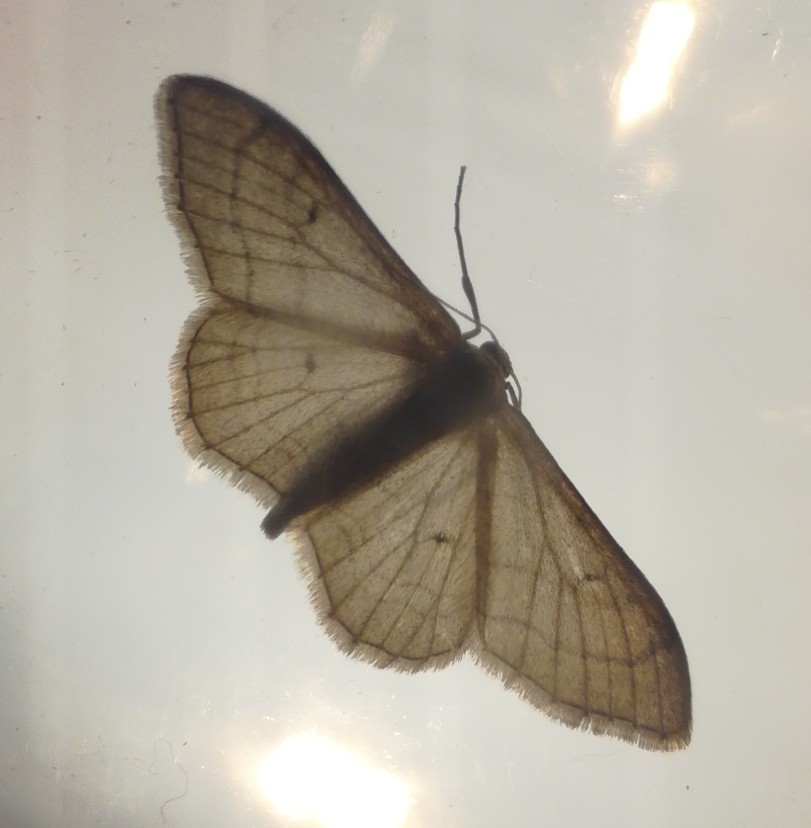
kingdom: Animalia
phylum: Arthropoda
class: Insecta
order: Lepidoptera
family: Geometridae
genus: Idaea
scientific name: Idaea aversata
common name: Riband wave
